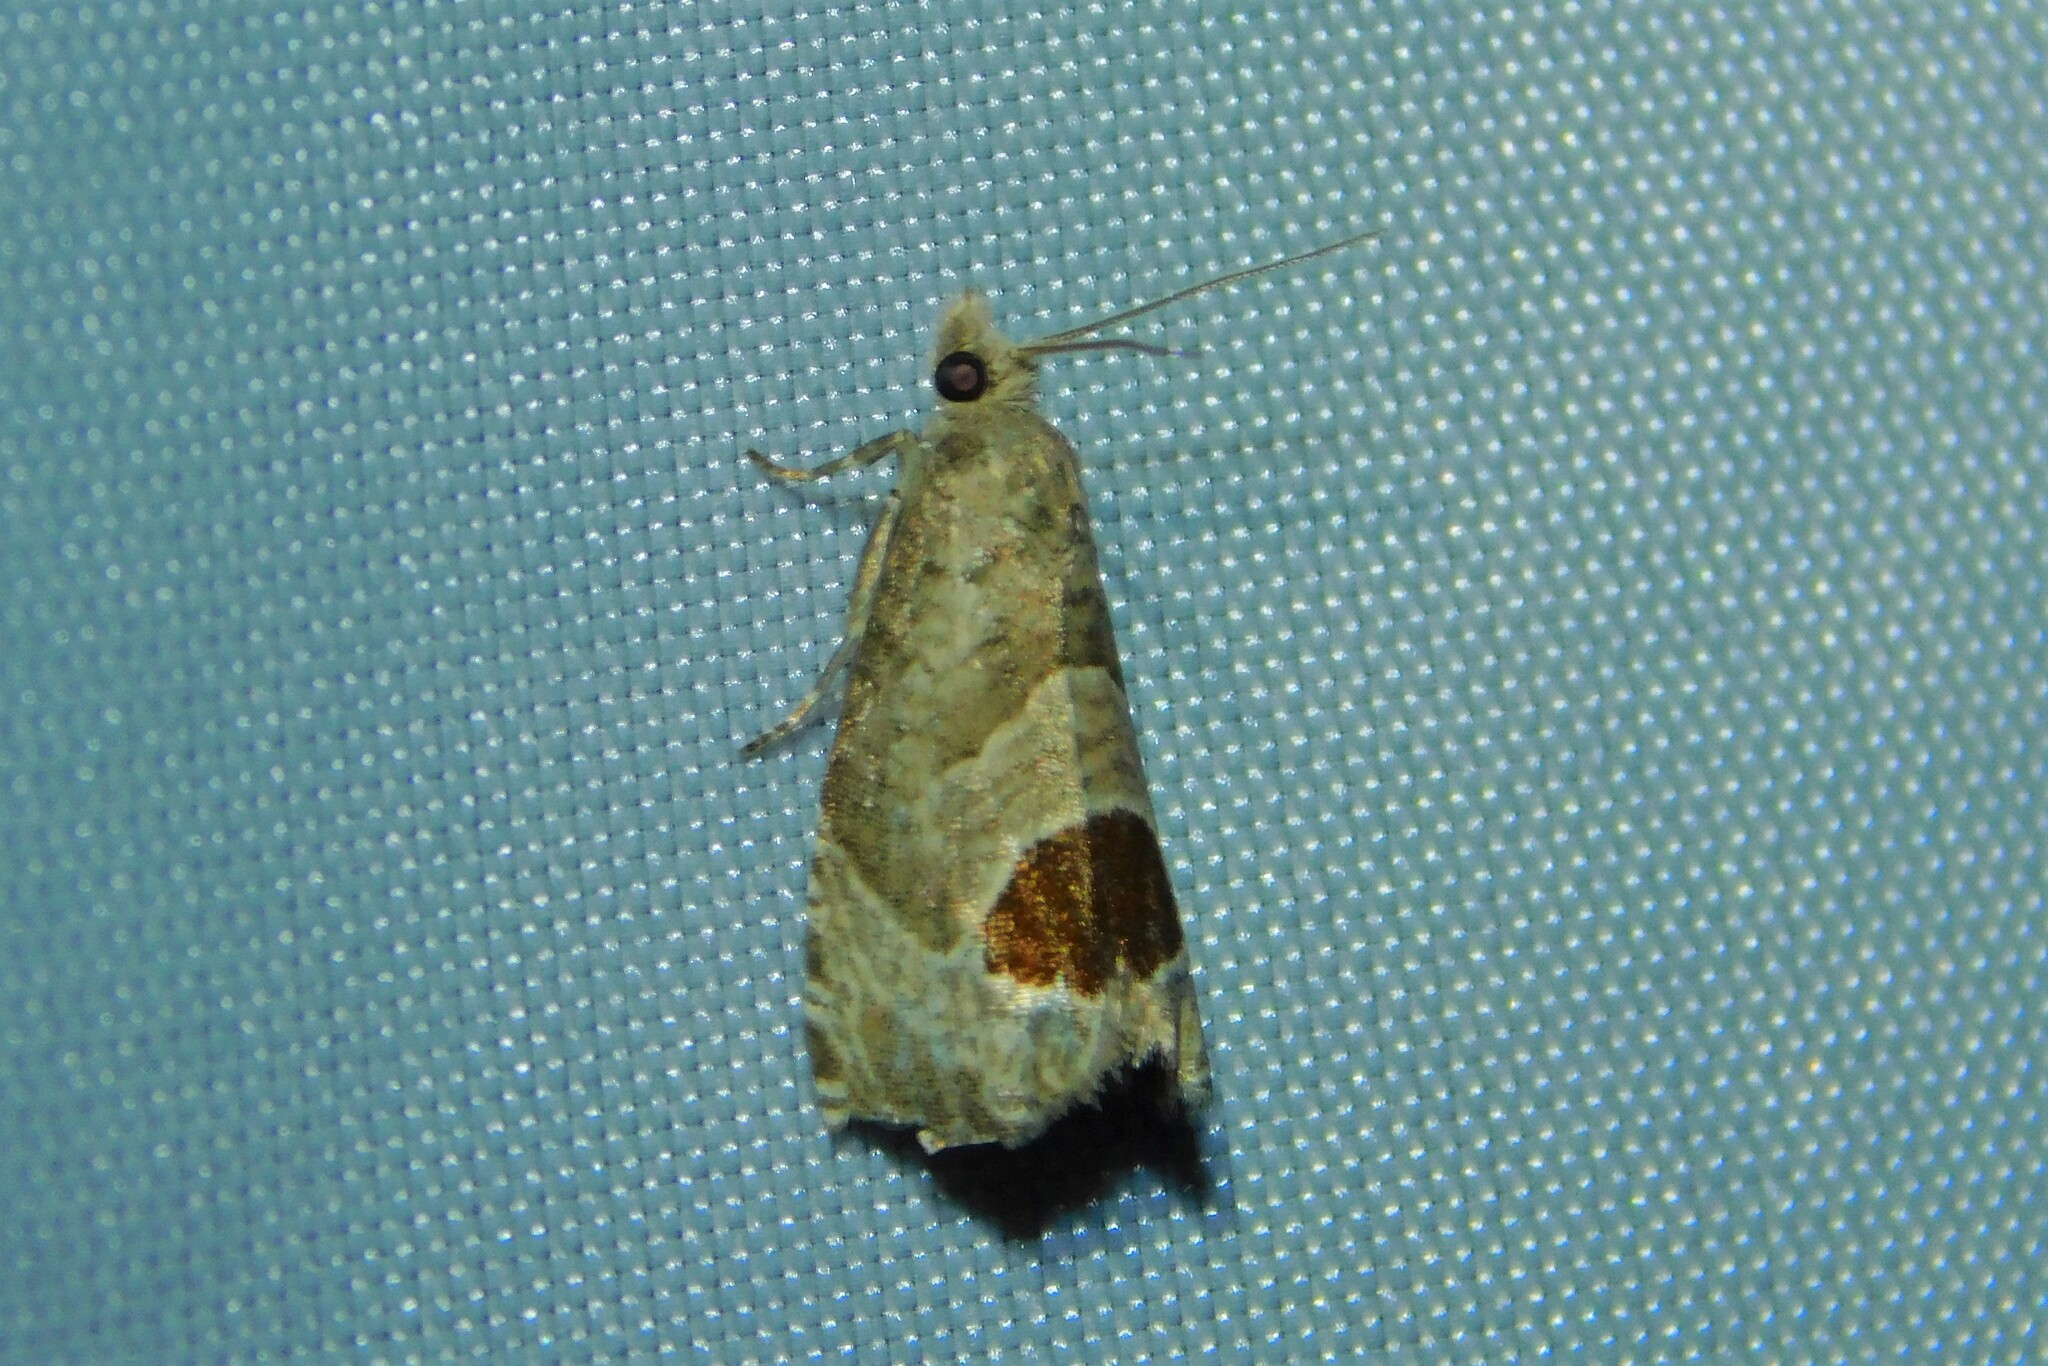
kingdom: Animalia
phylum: Arthropoda
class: Insecta
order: Lepidoptera
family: Tortricidae
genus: Notocelia
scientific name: Notocelia uddmanniana
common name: Bramble shoot moth
